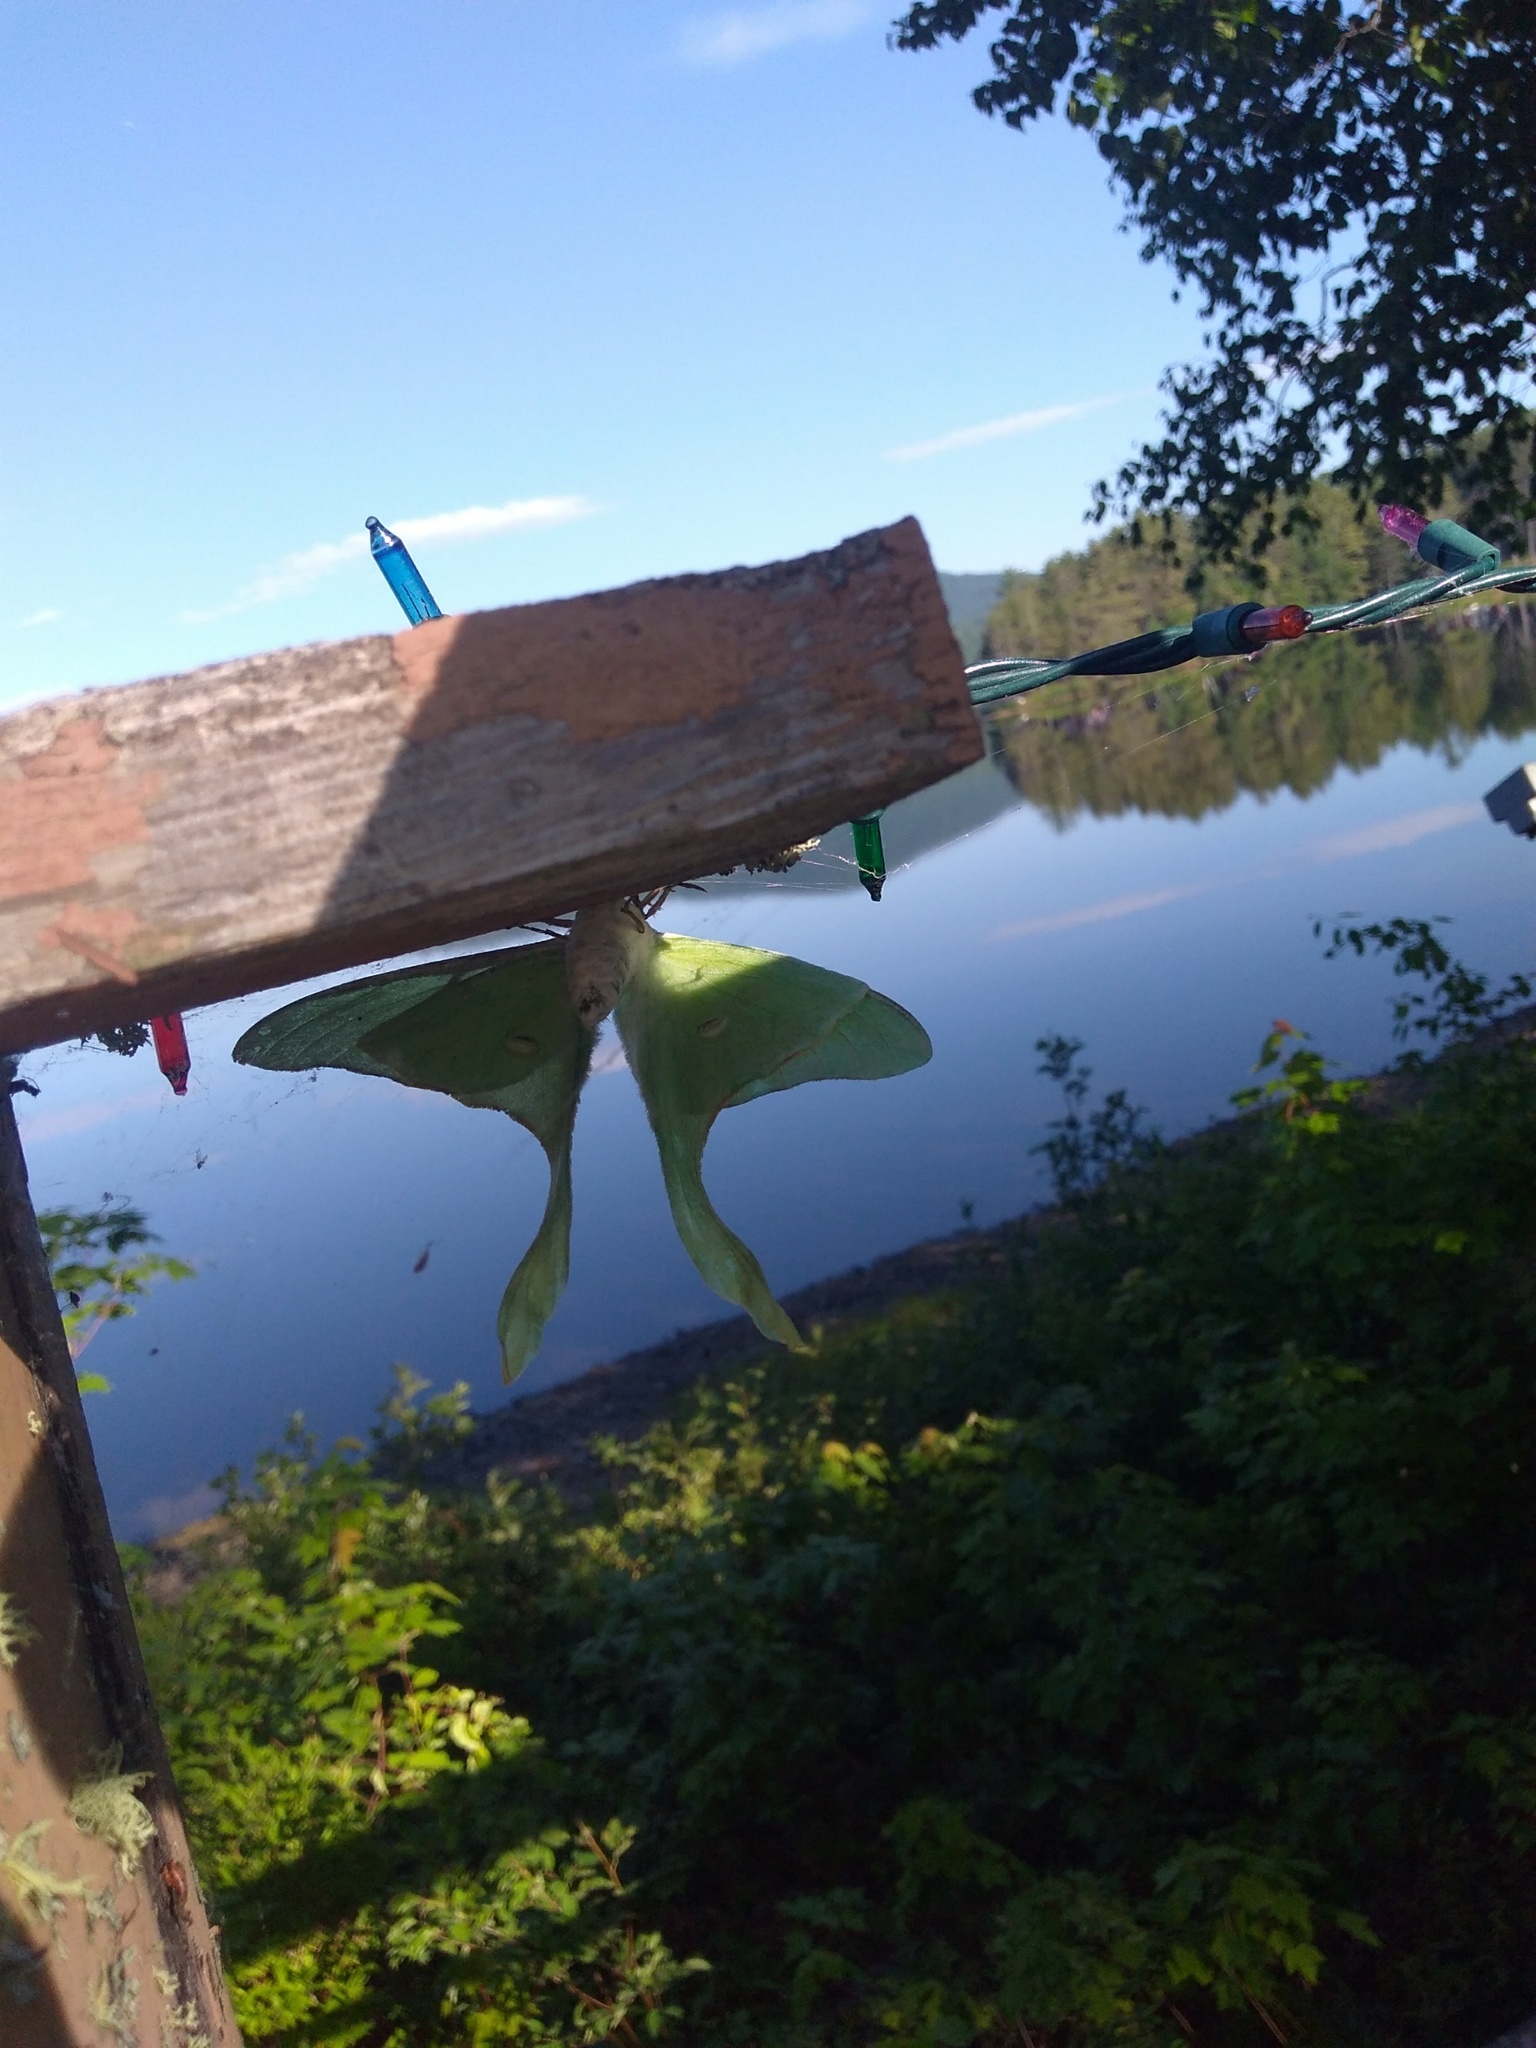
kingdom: Animalia
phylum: Arthropoda
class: Insecta
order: Lepidoptera
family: Saturniidae
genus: Actias
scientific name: Actias luna
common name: Luna moth
